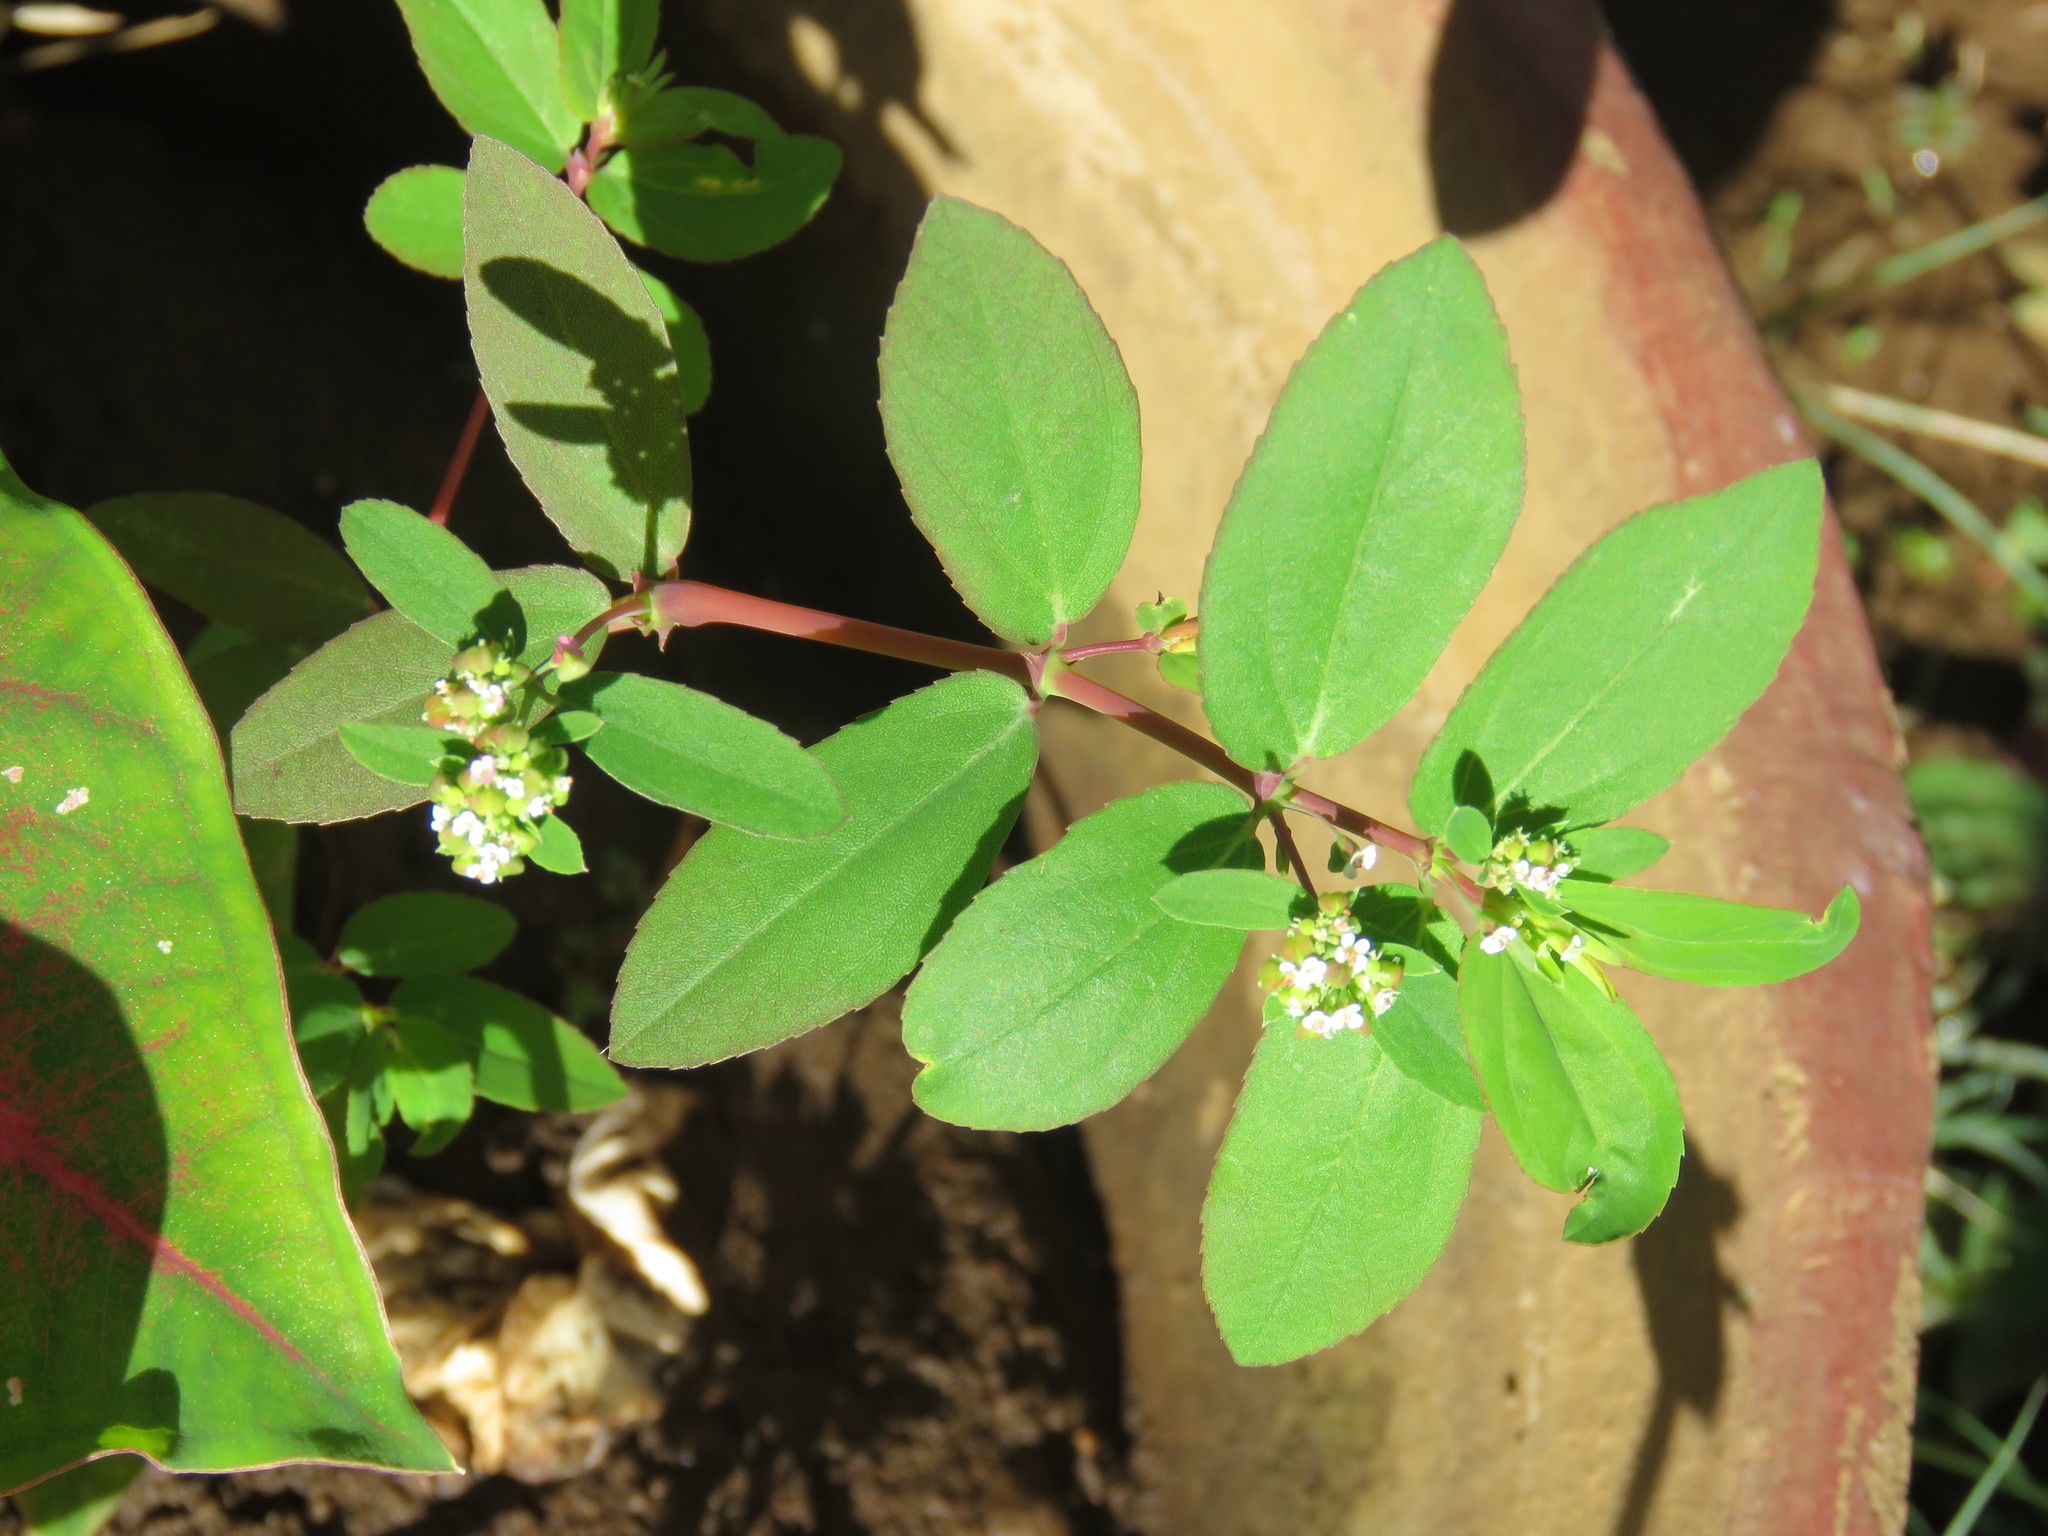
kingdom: Plantae
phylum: Tracheophyta
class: Magnoliopsida
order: Malpighiales
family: Euphorbiaceae
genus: Euphorbia
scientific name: Euphorbia hypericifolia
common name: Graceful sandmat
